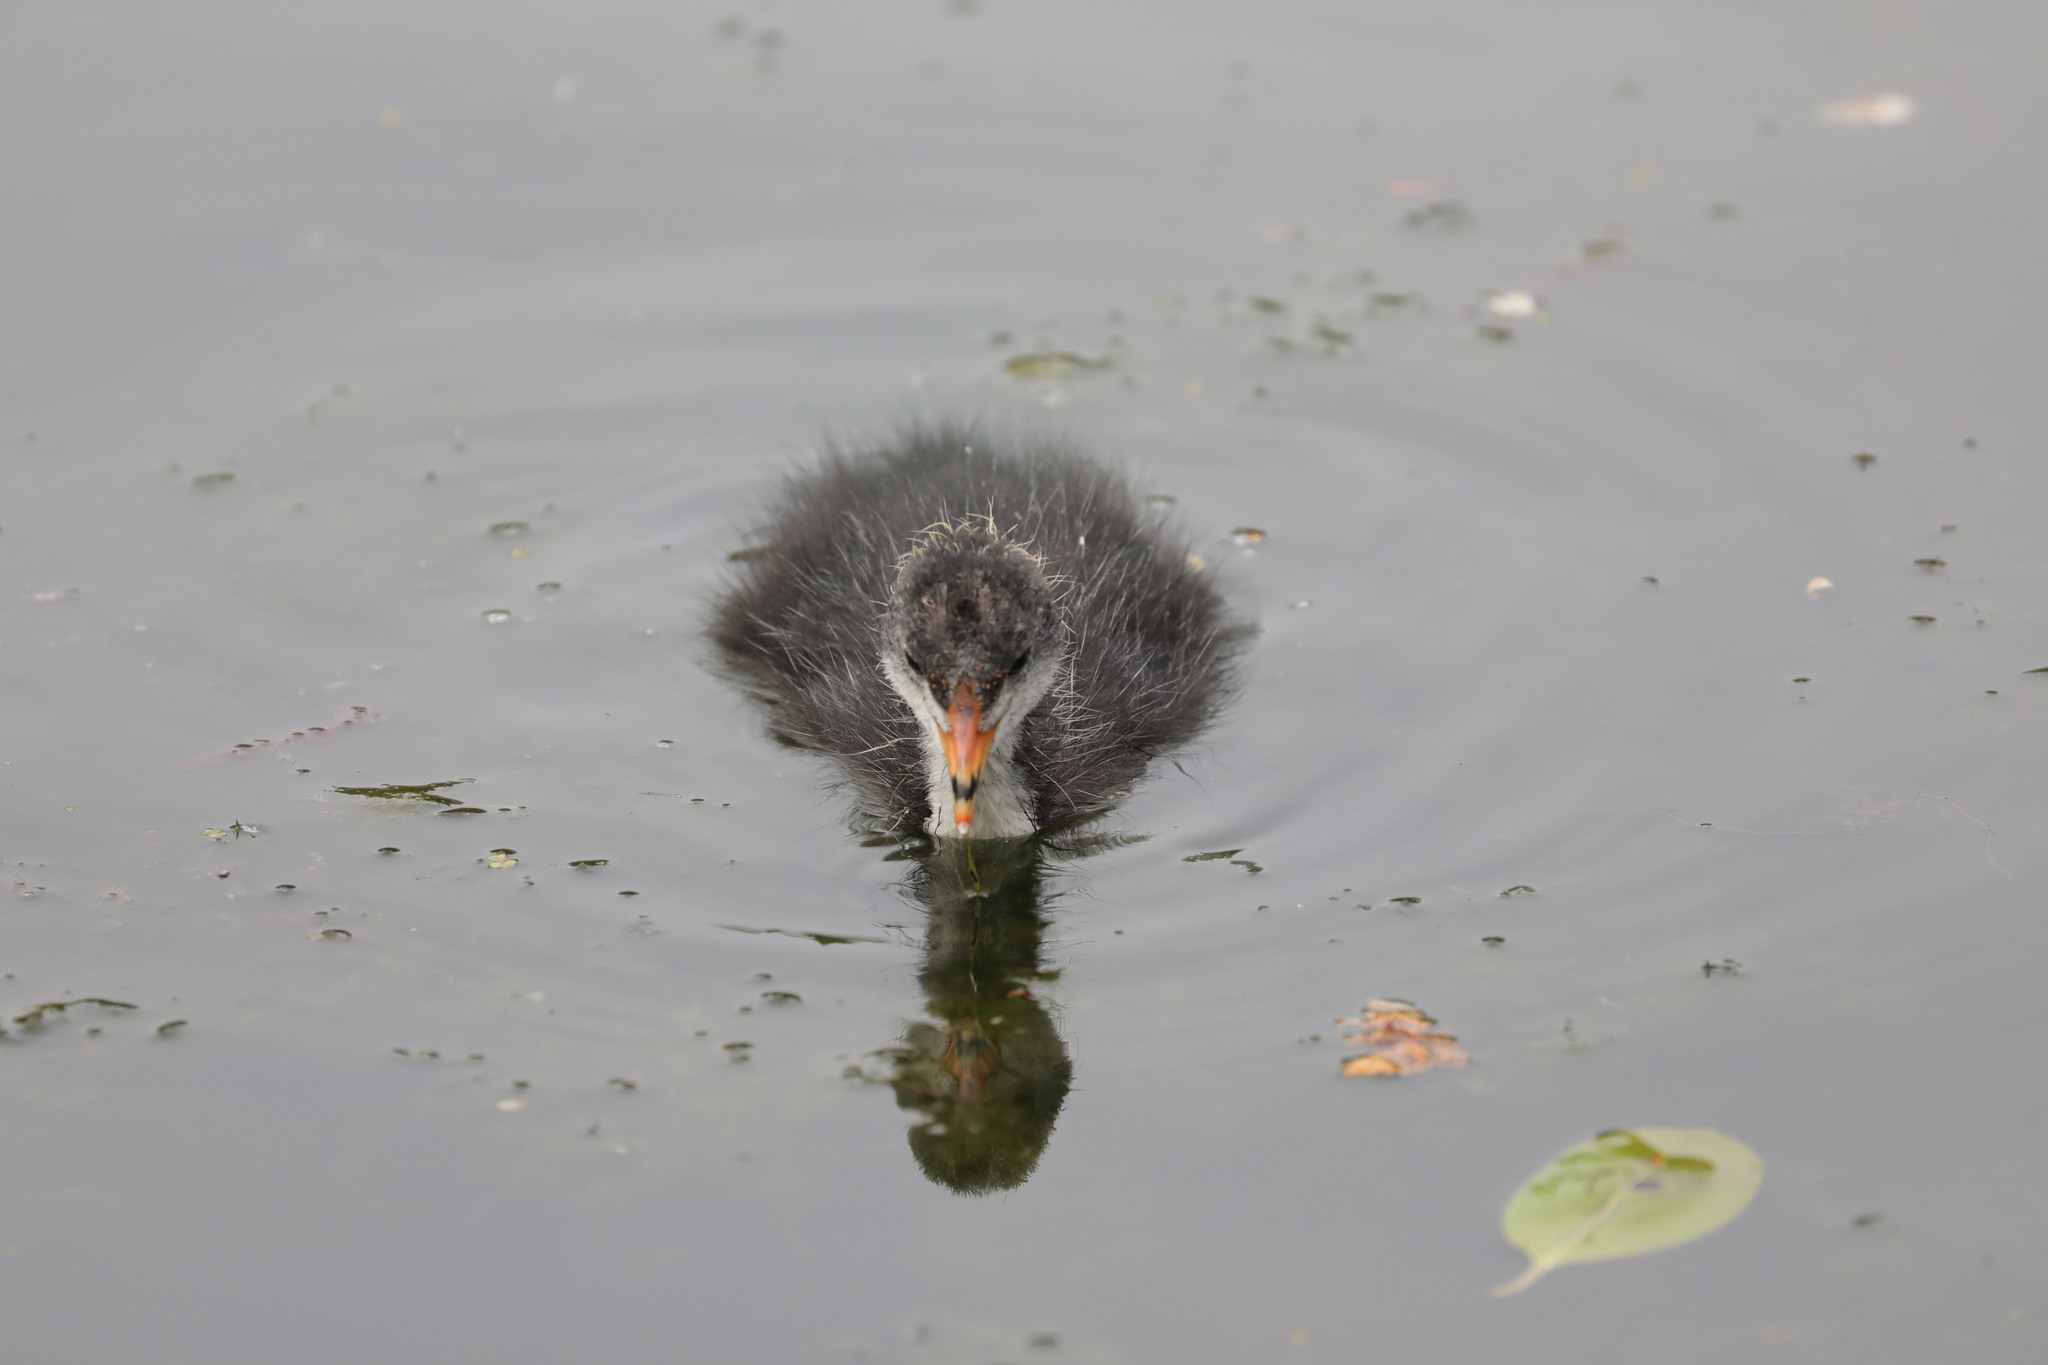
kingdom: Animalia
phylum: Chordata
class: Aves
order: Gruiformes
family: Rallidae
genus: Fulica
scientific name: Fulica atra
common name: Eurasian coot
